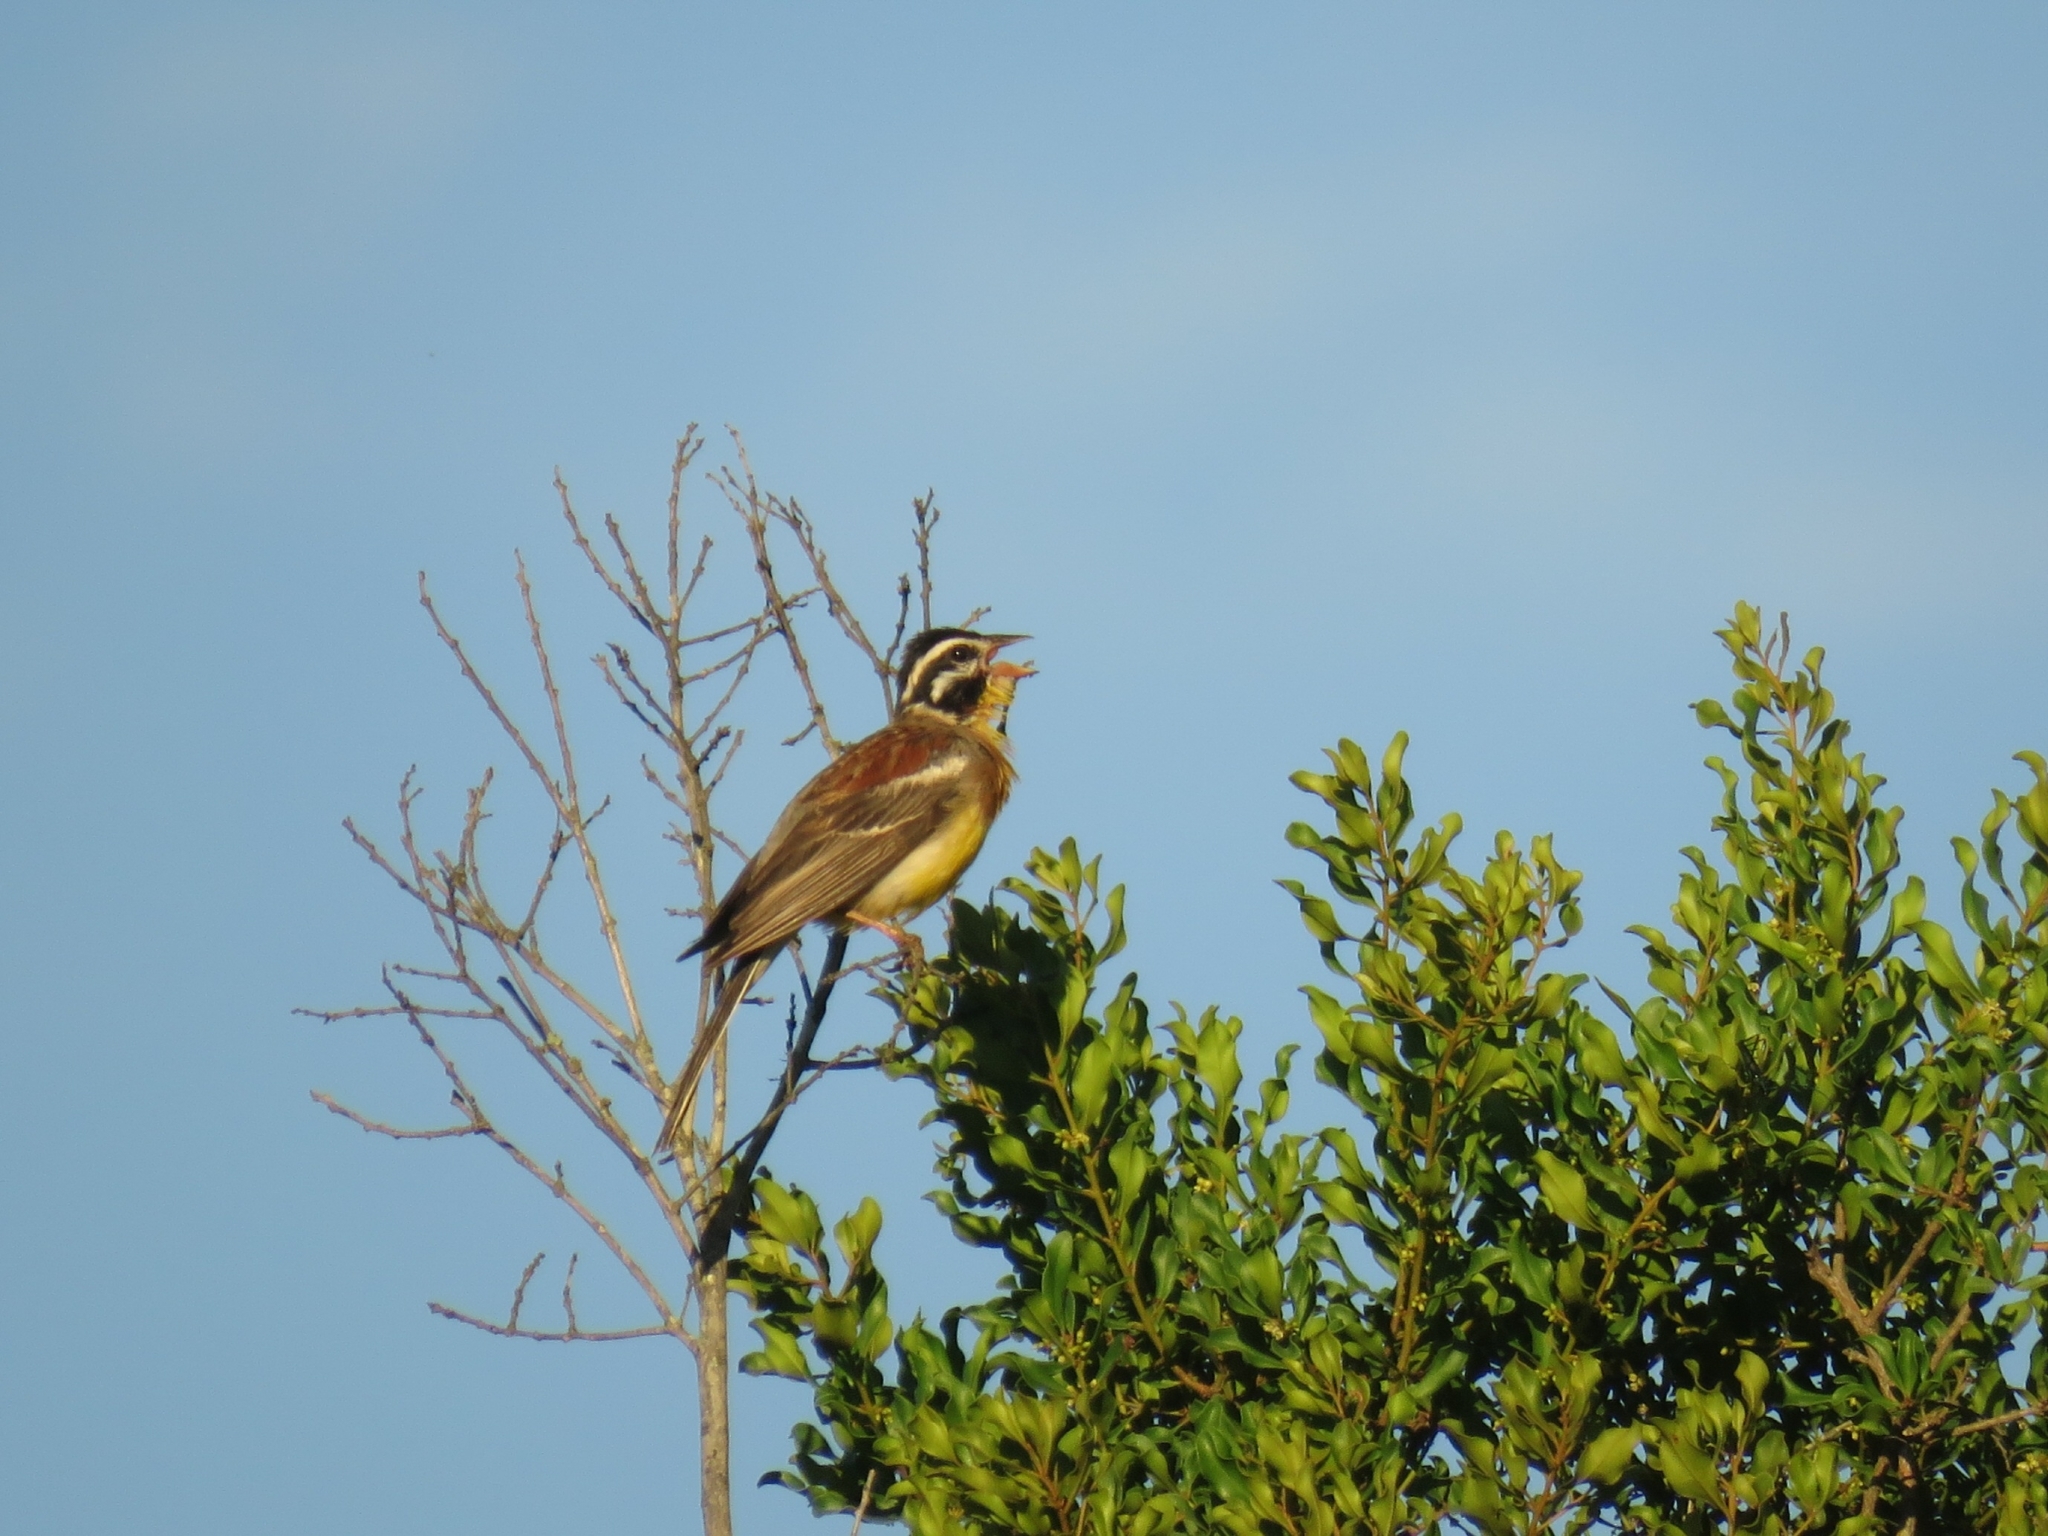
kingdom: Animalia
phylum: Chordata
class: Aves
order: Passeriformes
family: Emberizidae
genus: Emberiza
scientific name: Emberiza flaviventris
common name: Golden-breasted bunting
